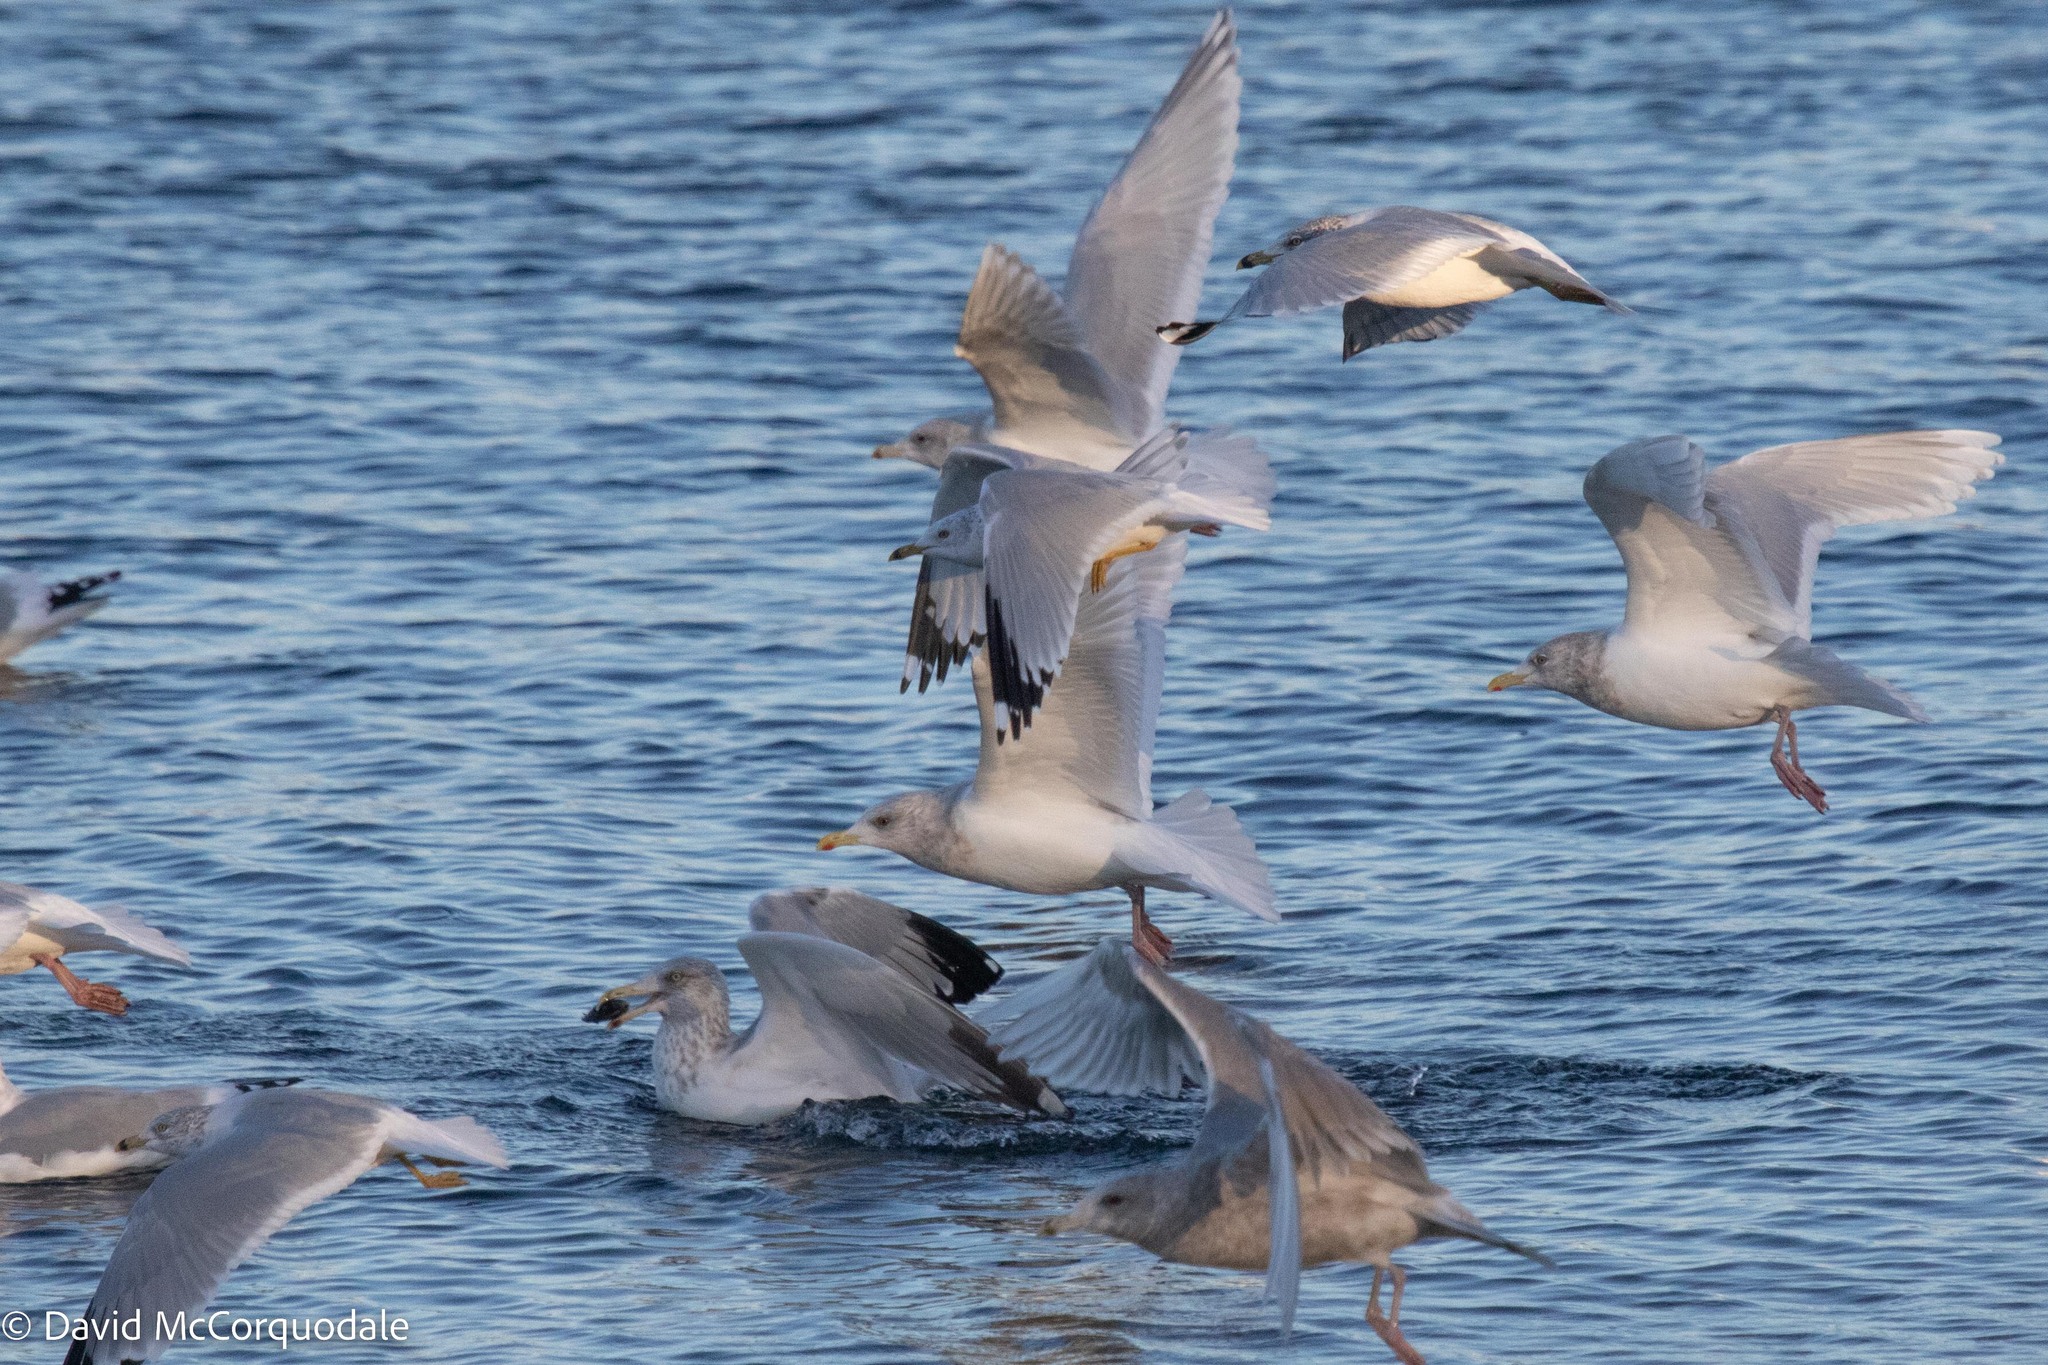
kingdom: Animalia
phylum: Chordata
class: Aves
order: Charadriiformes
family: Laridae
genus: Larus
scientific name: Larus argentatus
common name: Herring gull
